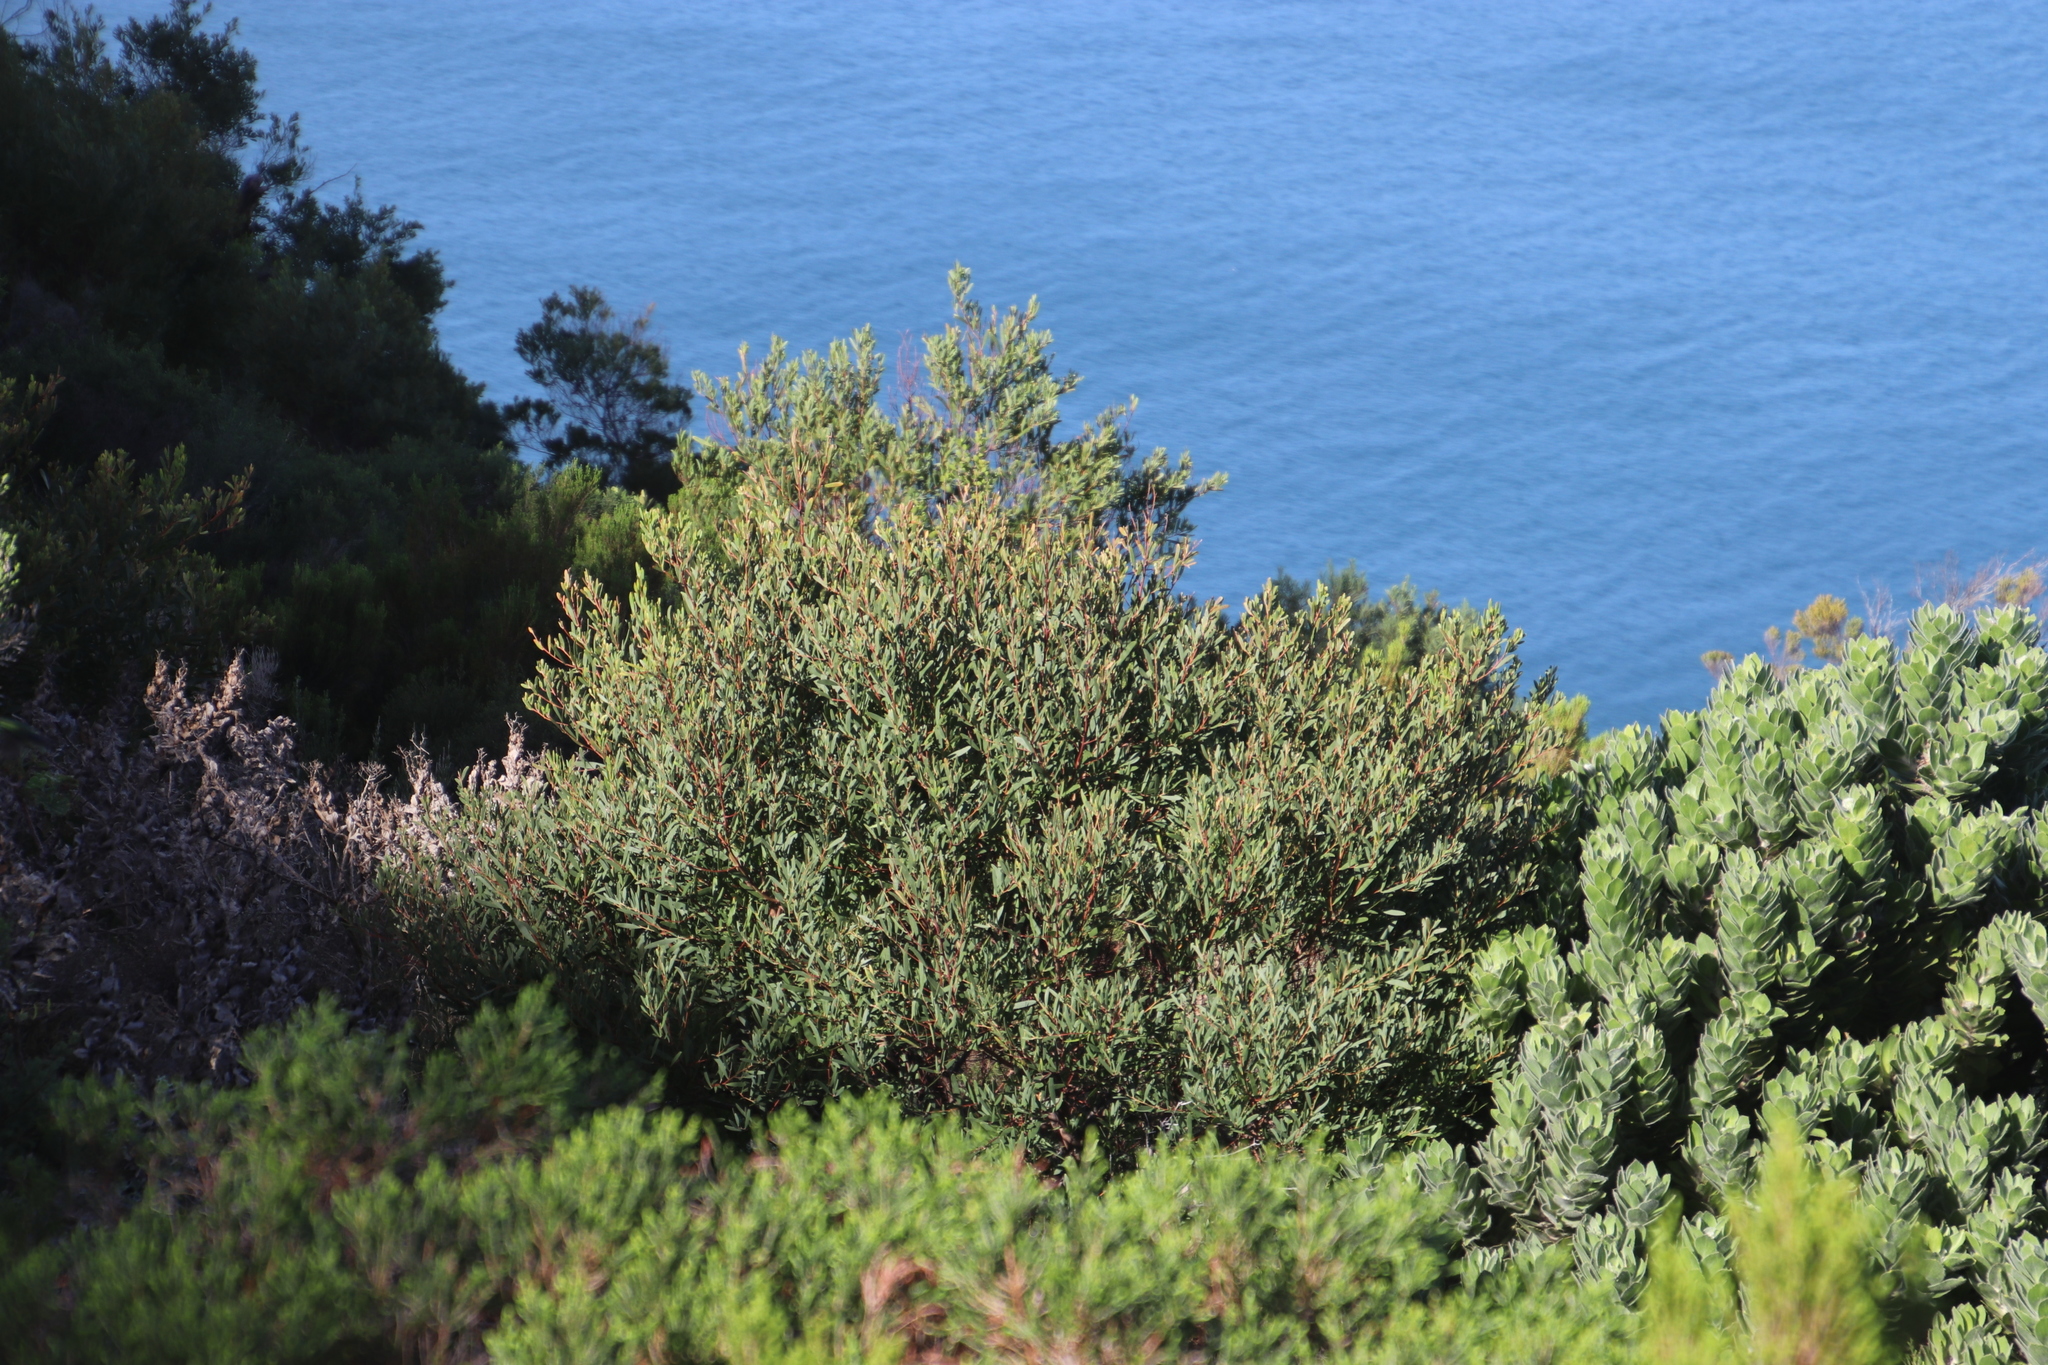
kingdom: Plantae
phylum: Tracheophyta
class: Magnoliopsida
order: Fabales
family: Fabaceae
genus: Acacia
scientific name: Acacia cyclops
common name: Coastal wattle
